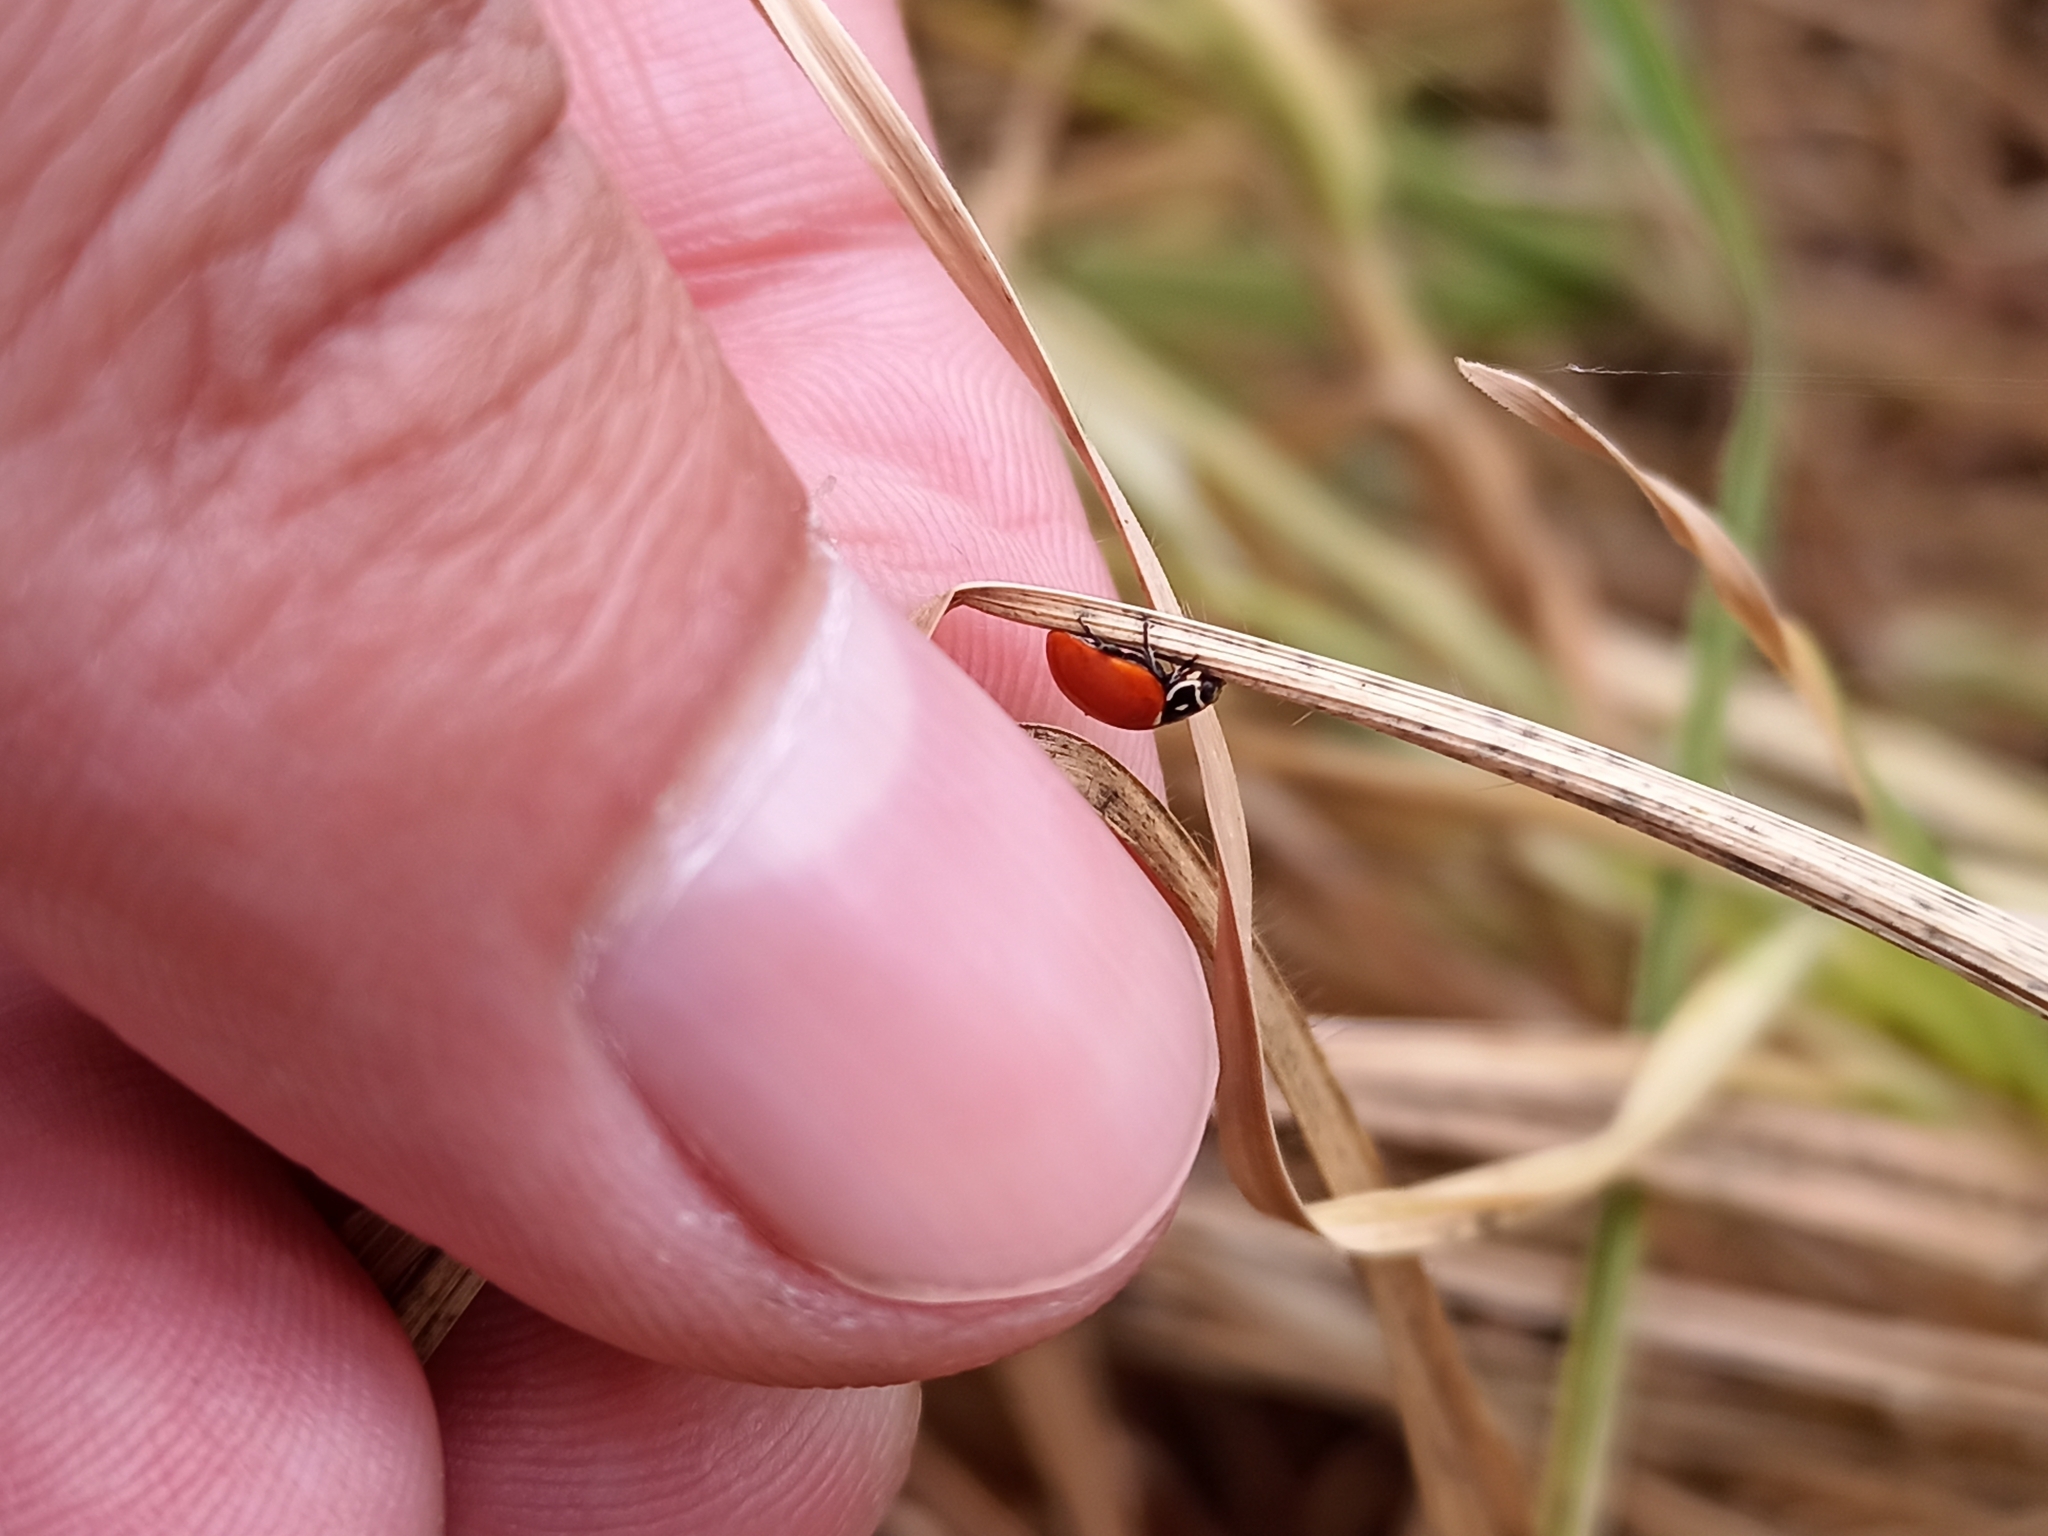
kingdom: Animalia
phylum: Arthropoda
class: Insecta
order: Coleoptera
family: Coccinellidae
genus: Cycloneda
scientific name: Cycloneda emarginata
